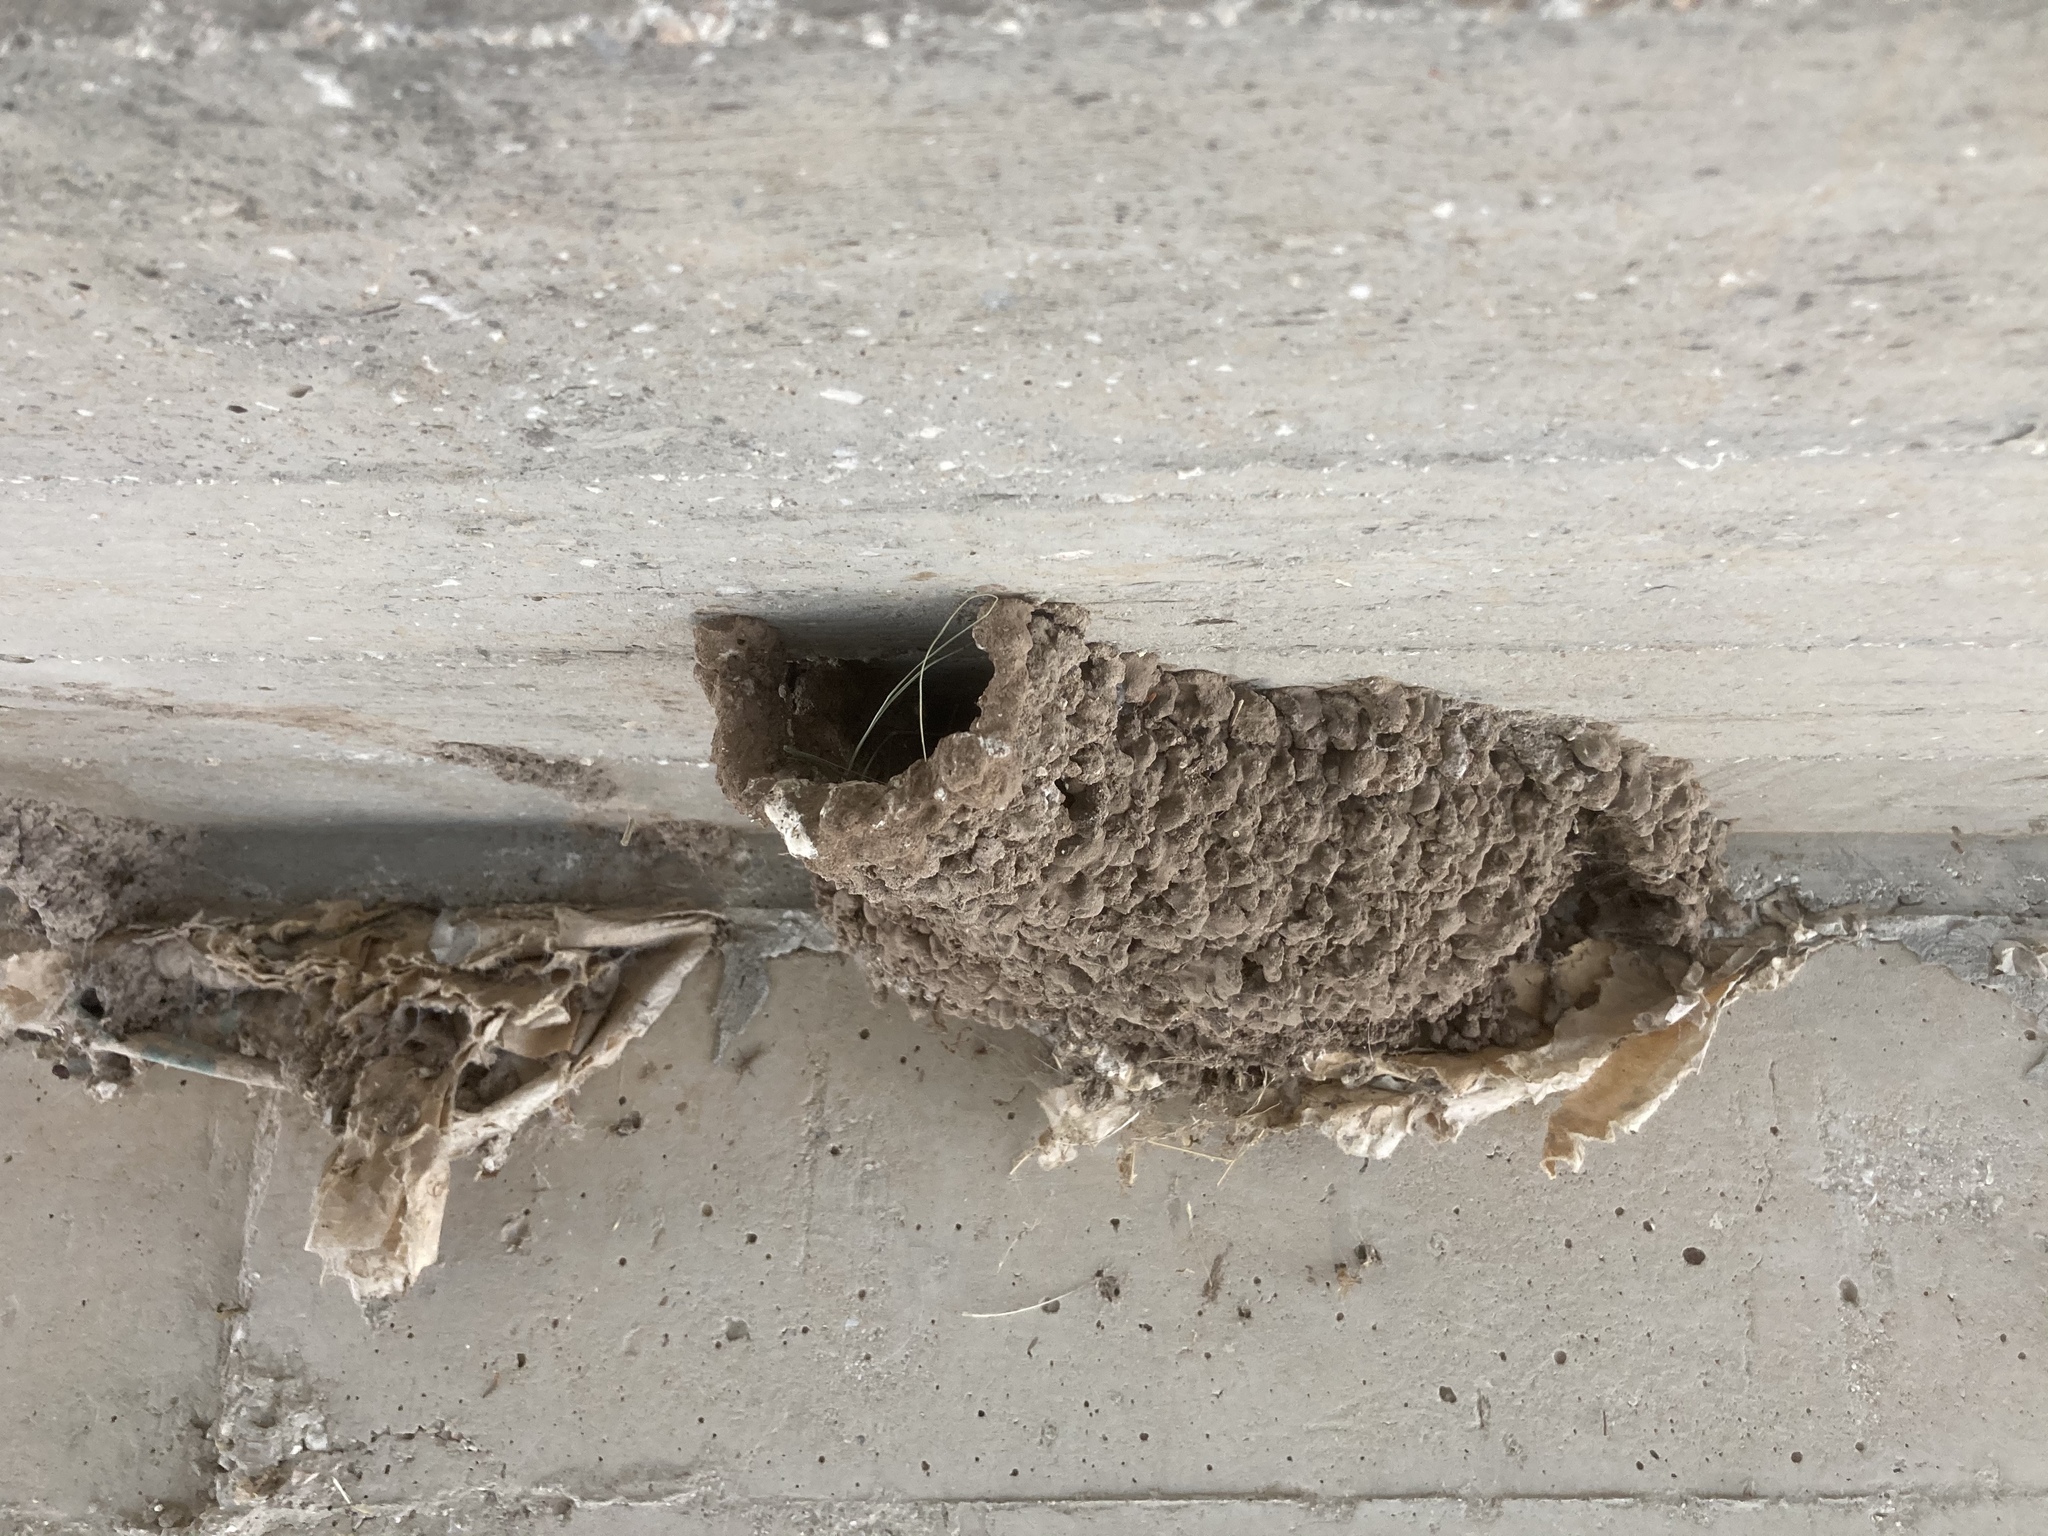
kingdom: Animalia
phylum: Chordata
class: Aves
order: Passeriformes
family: Hirundinidae
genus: Cecropis
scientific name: Cecropis daurica
